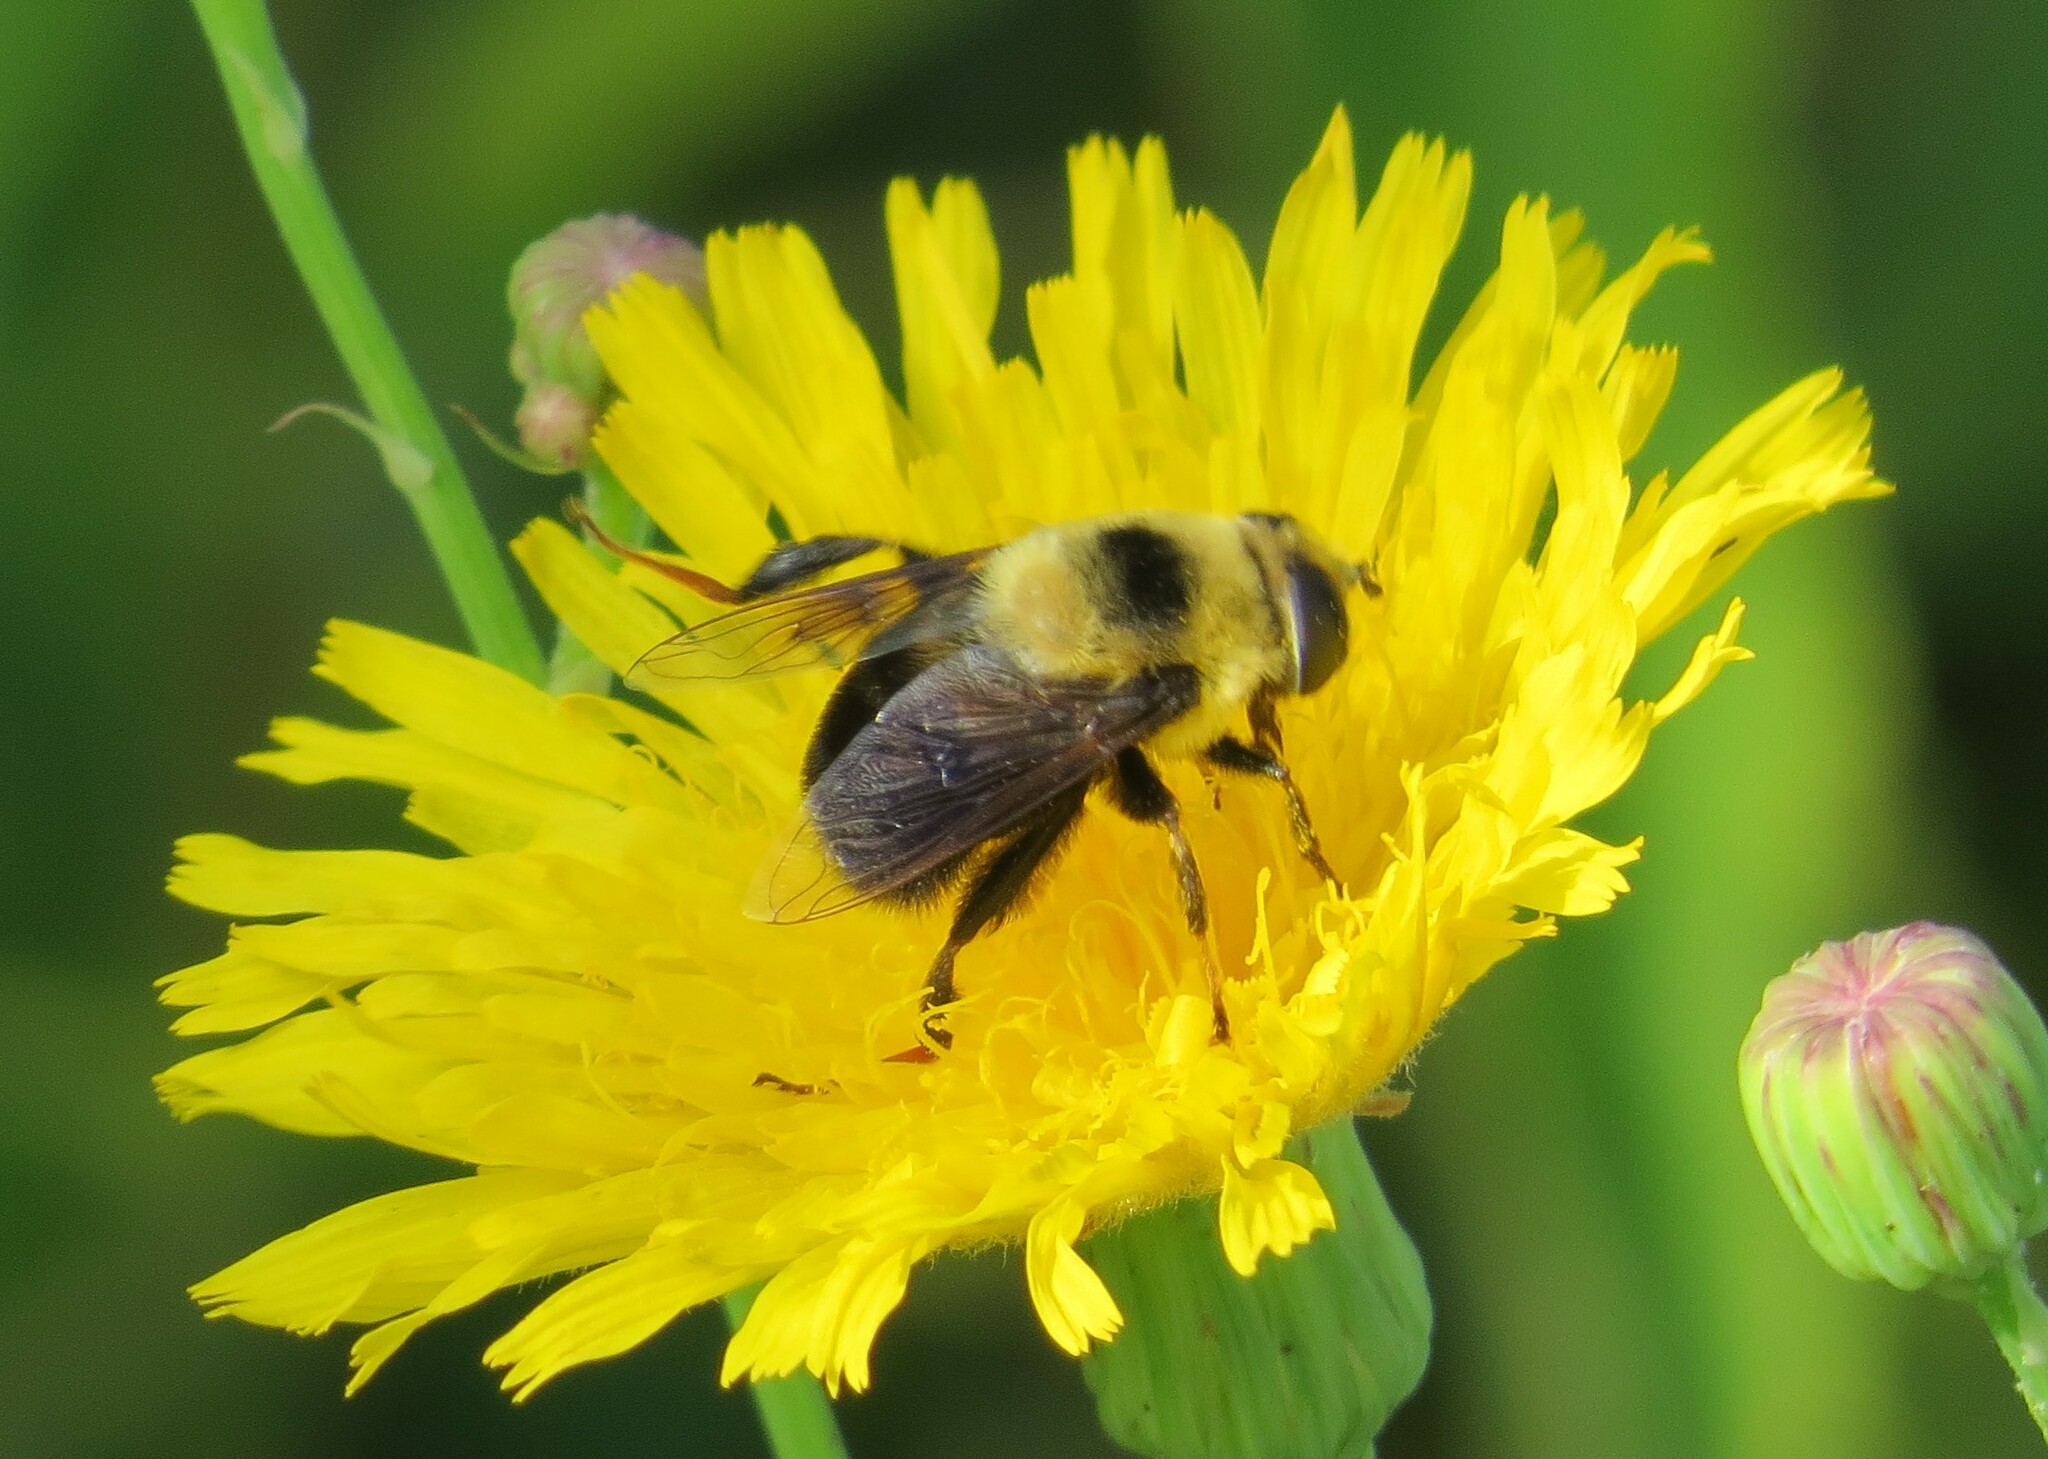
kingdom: Animalia
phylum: Arthropoda
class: Insecta
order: Diptera
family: Syrphidae
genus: Eristalis
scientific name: Eristalis flavipes
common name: Orange-legged drone fly
